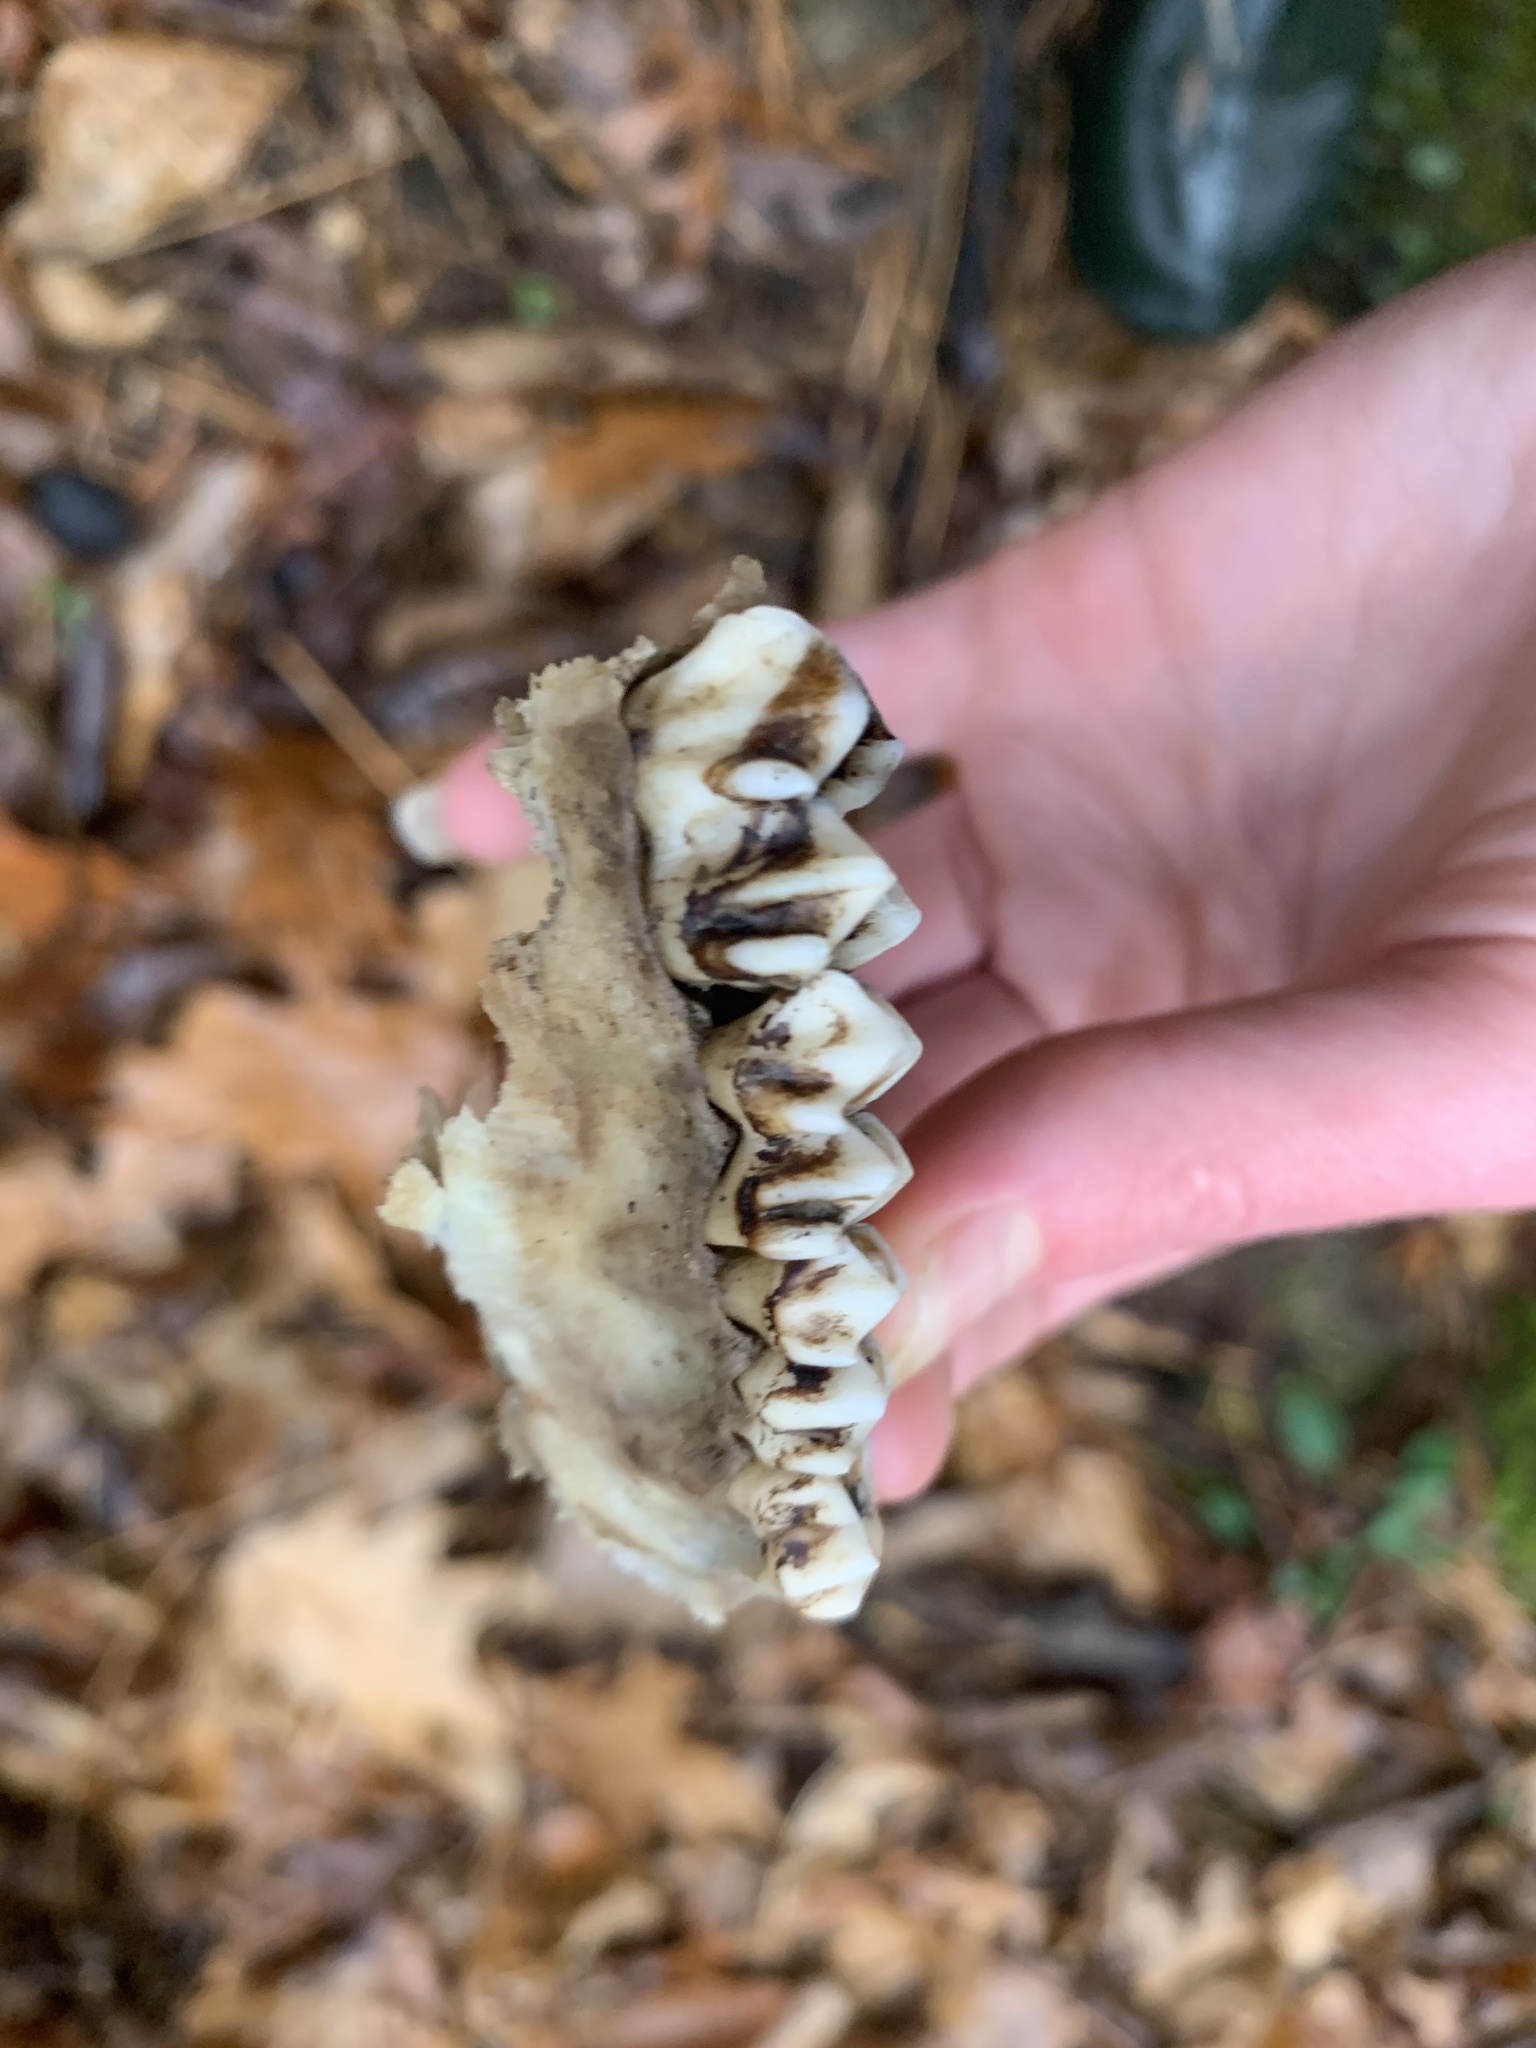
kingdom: Animalia
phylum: Chordata
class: Mammalia
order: Artiodactyla
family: Cervidae
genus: Odocoileus
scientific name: Odocoileus virginianus
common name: White-tailed deer
